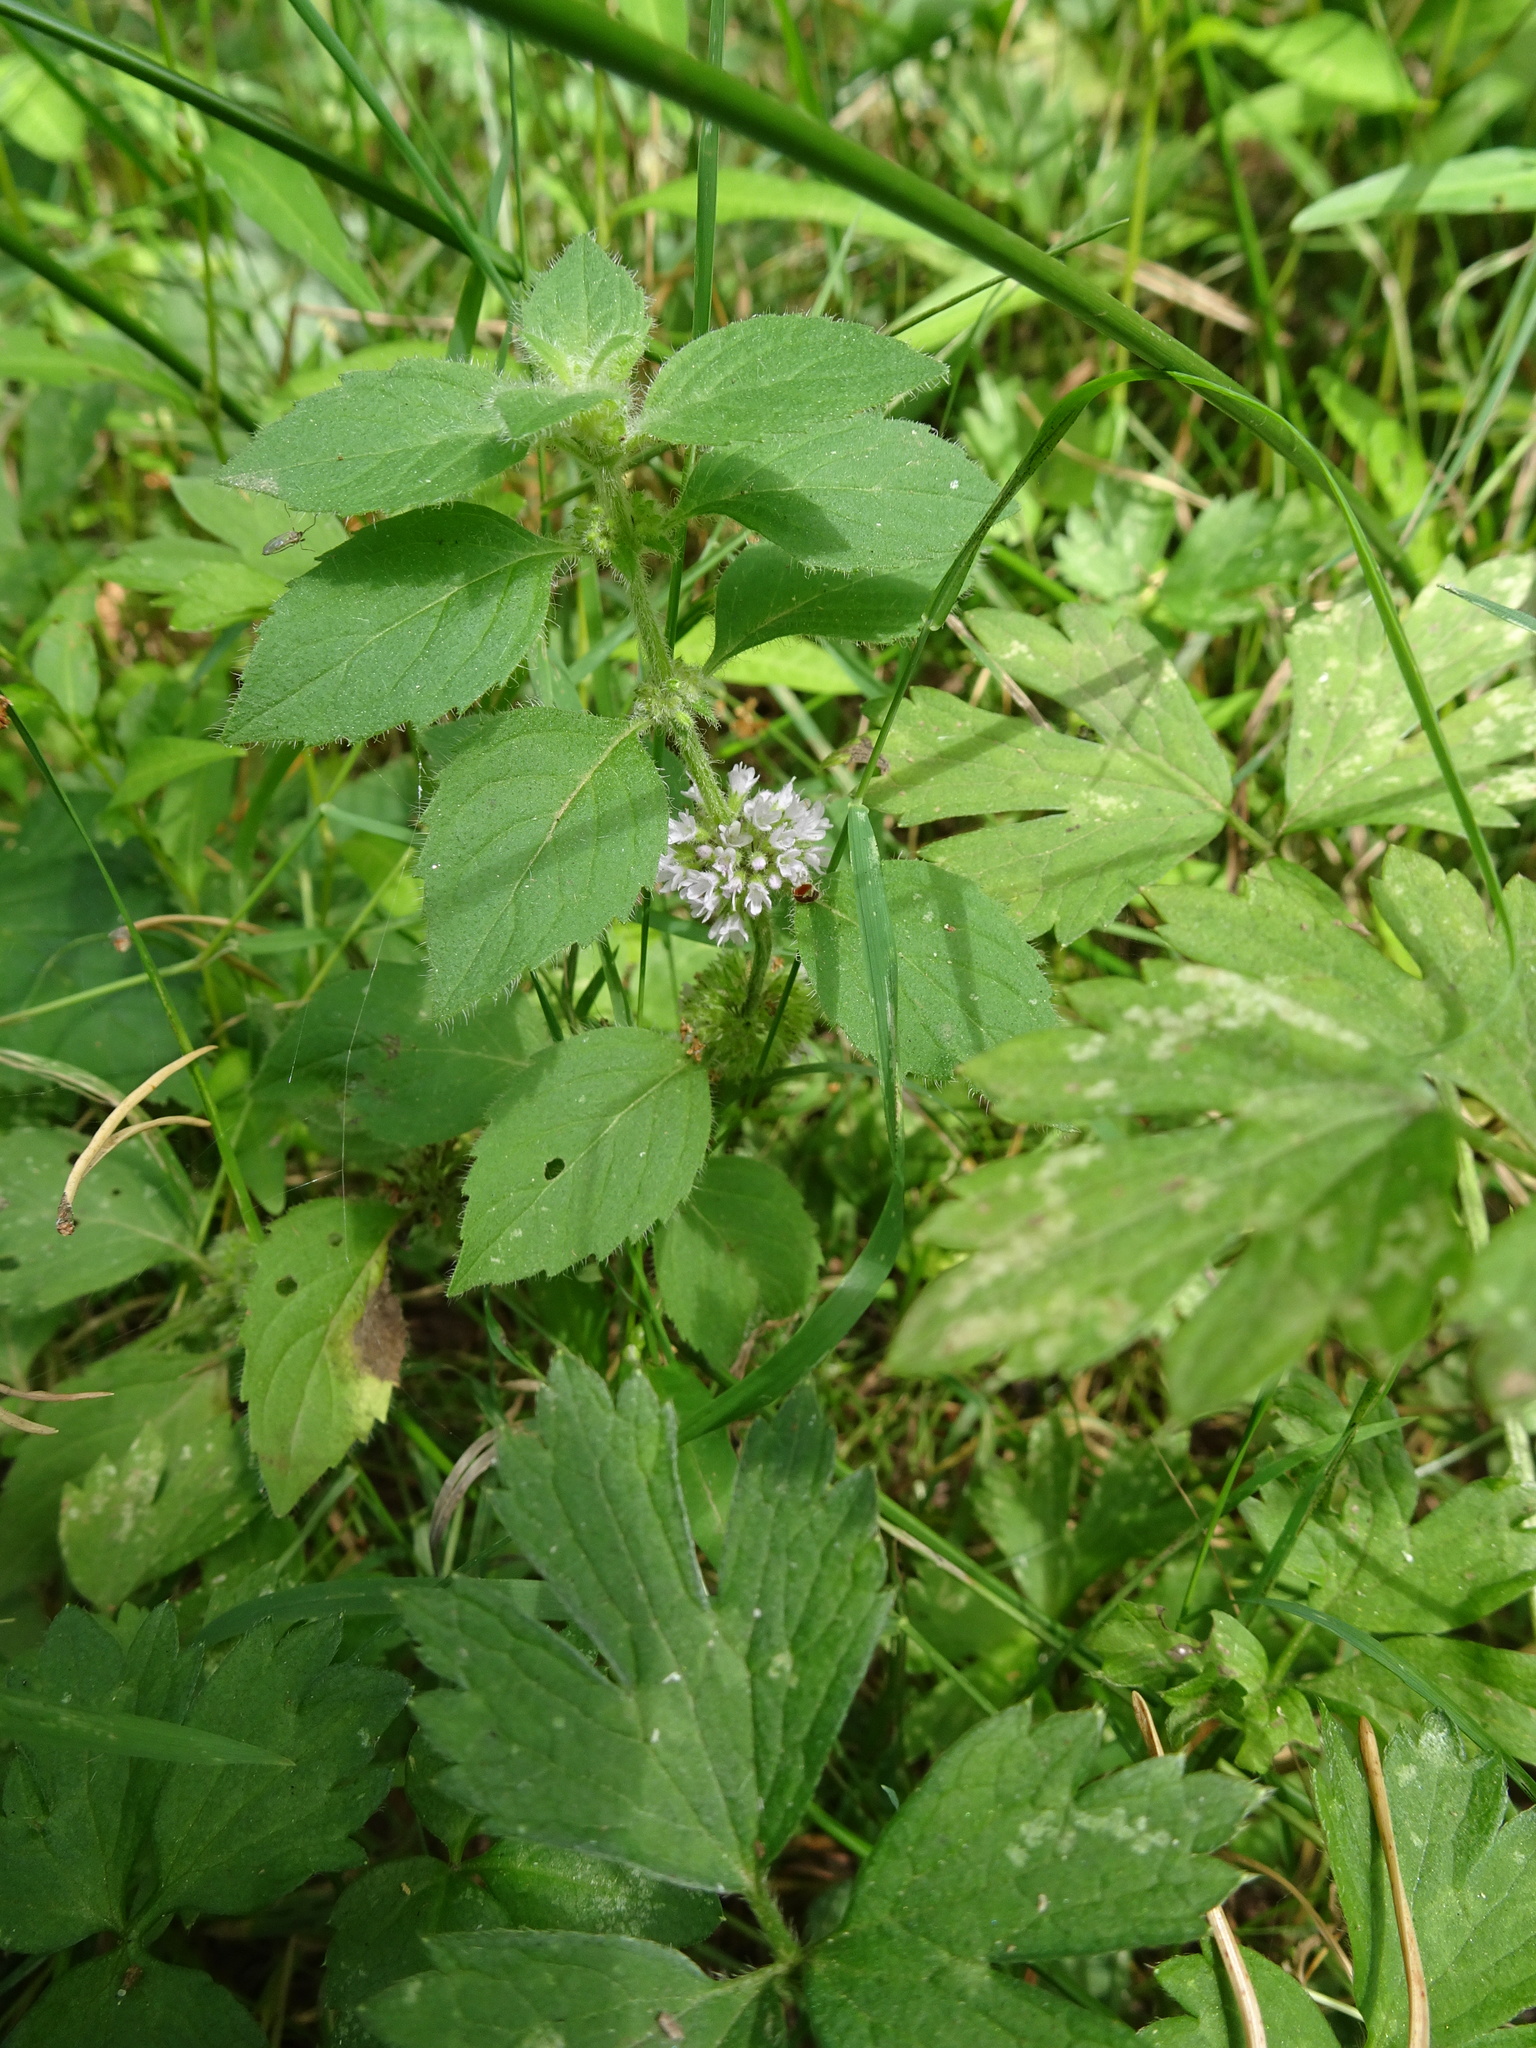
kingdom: Plantae
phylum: Tracheophyta
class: Magnoliopsida
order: Lamiales
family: Lamiaceae
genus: Mentha
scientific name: Mentha verticillata
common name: Mint
